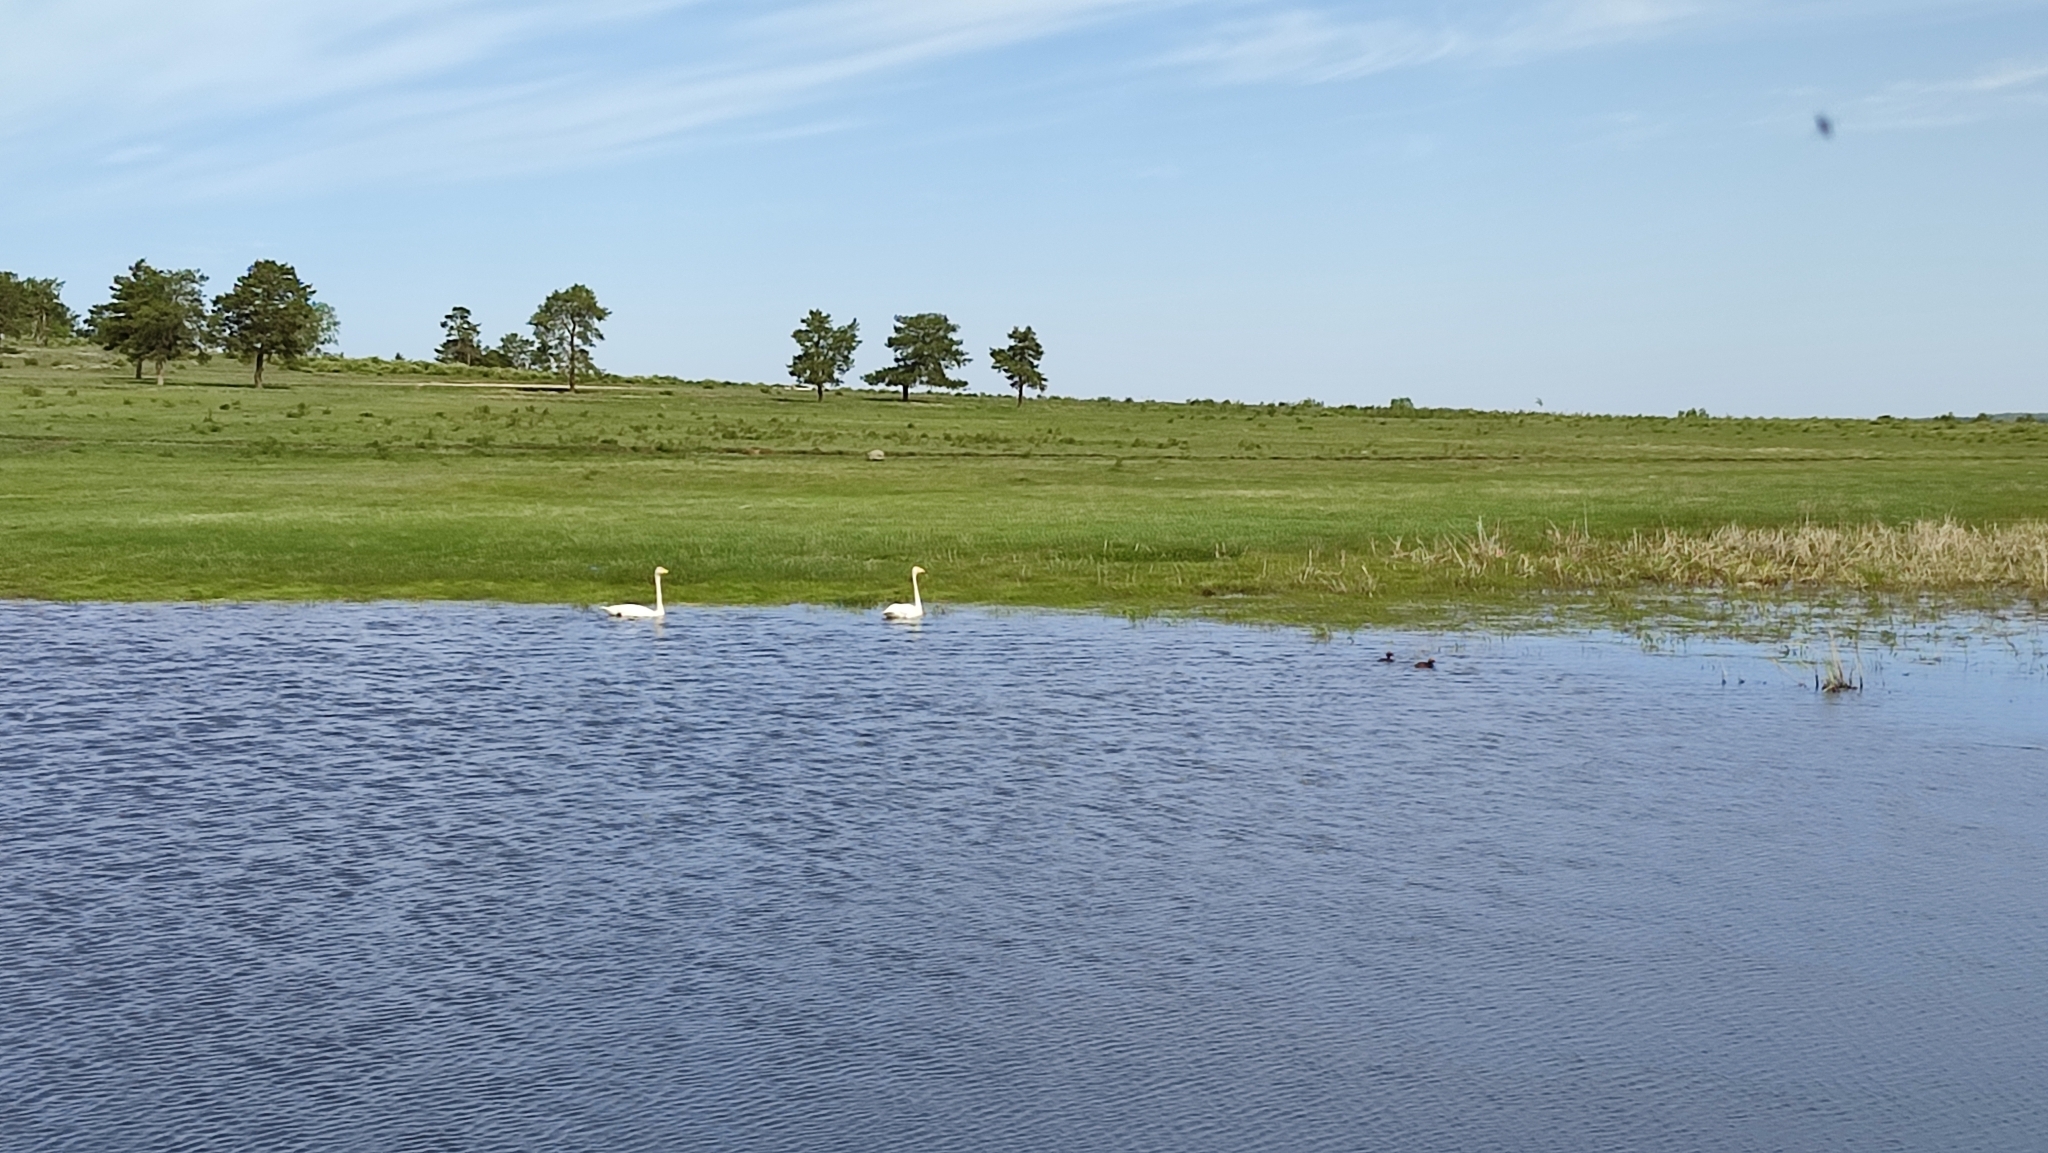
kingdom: Animalia
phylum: Chordata
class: Aves
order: Anseriformes
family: Anatidae
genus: Cygnus
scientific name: Cygnus cygnus
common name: Whooper swan
